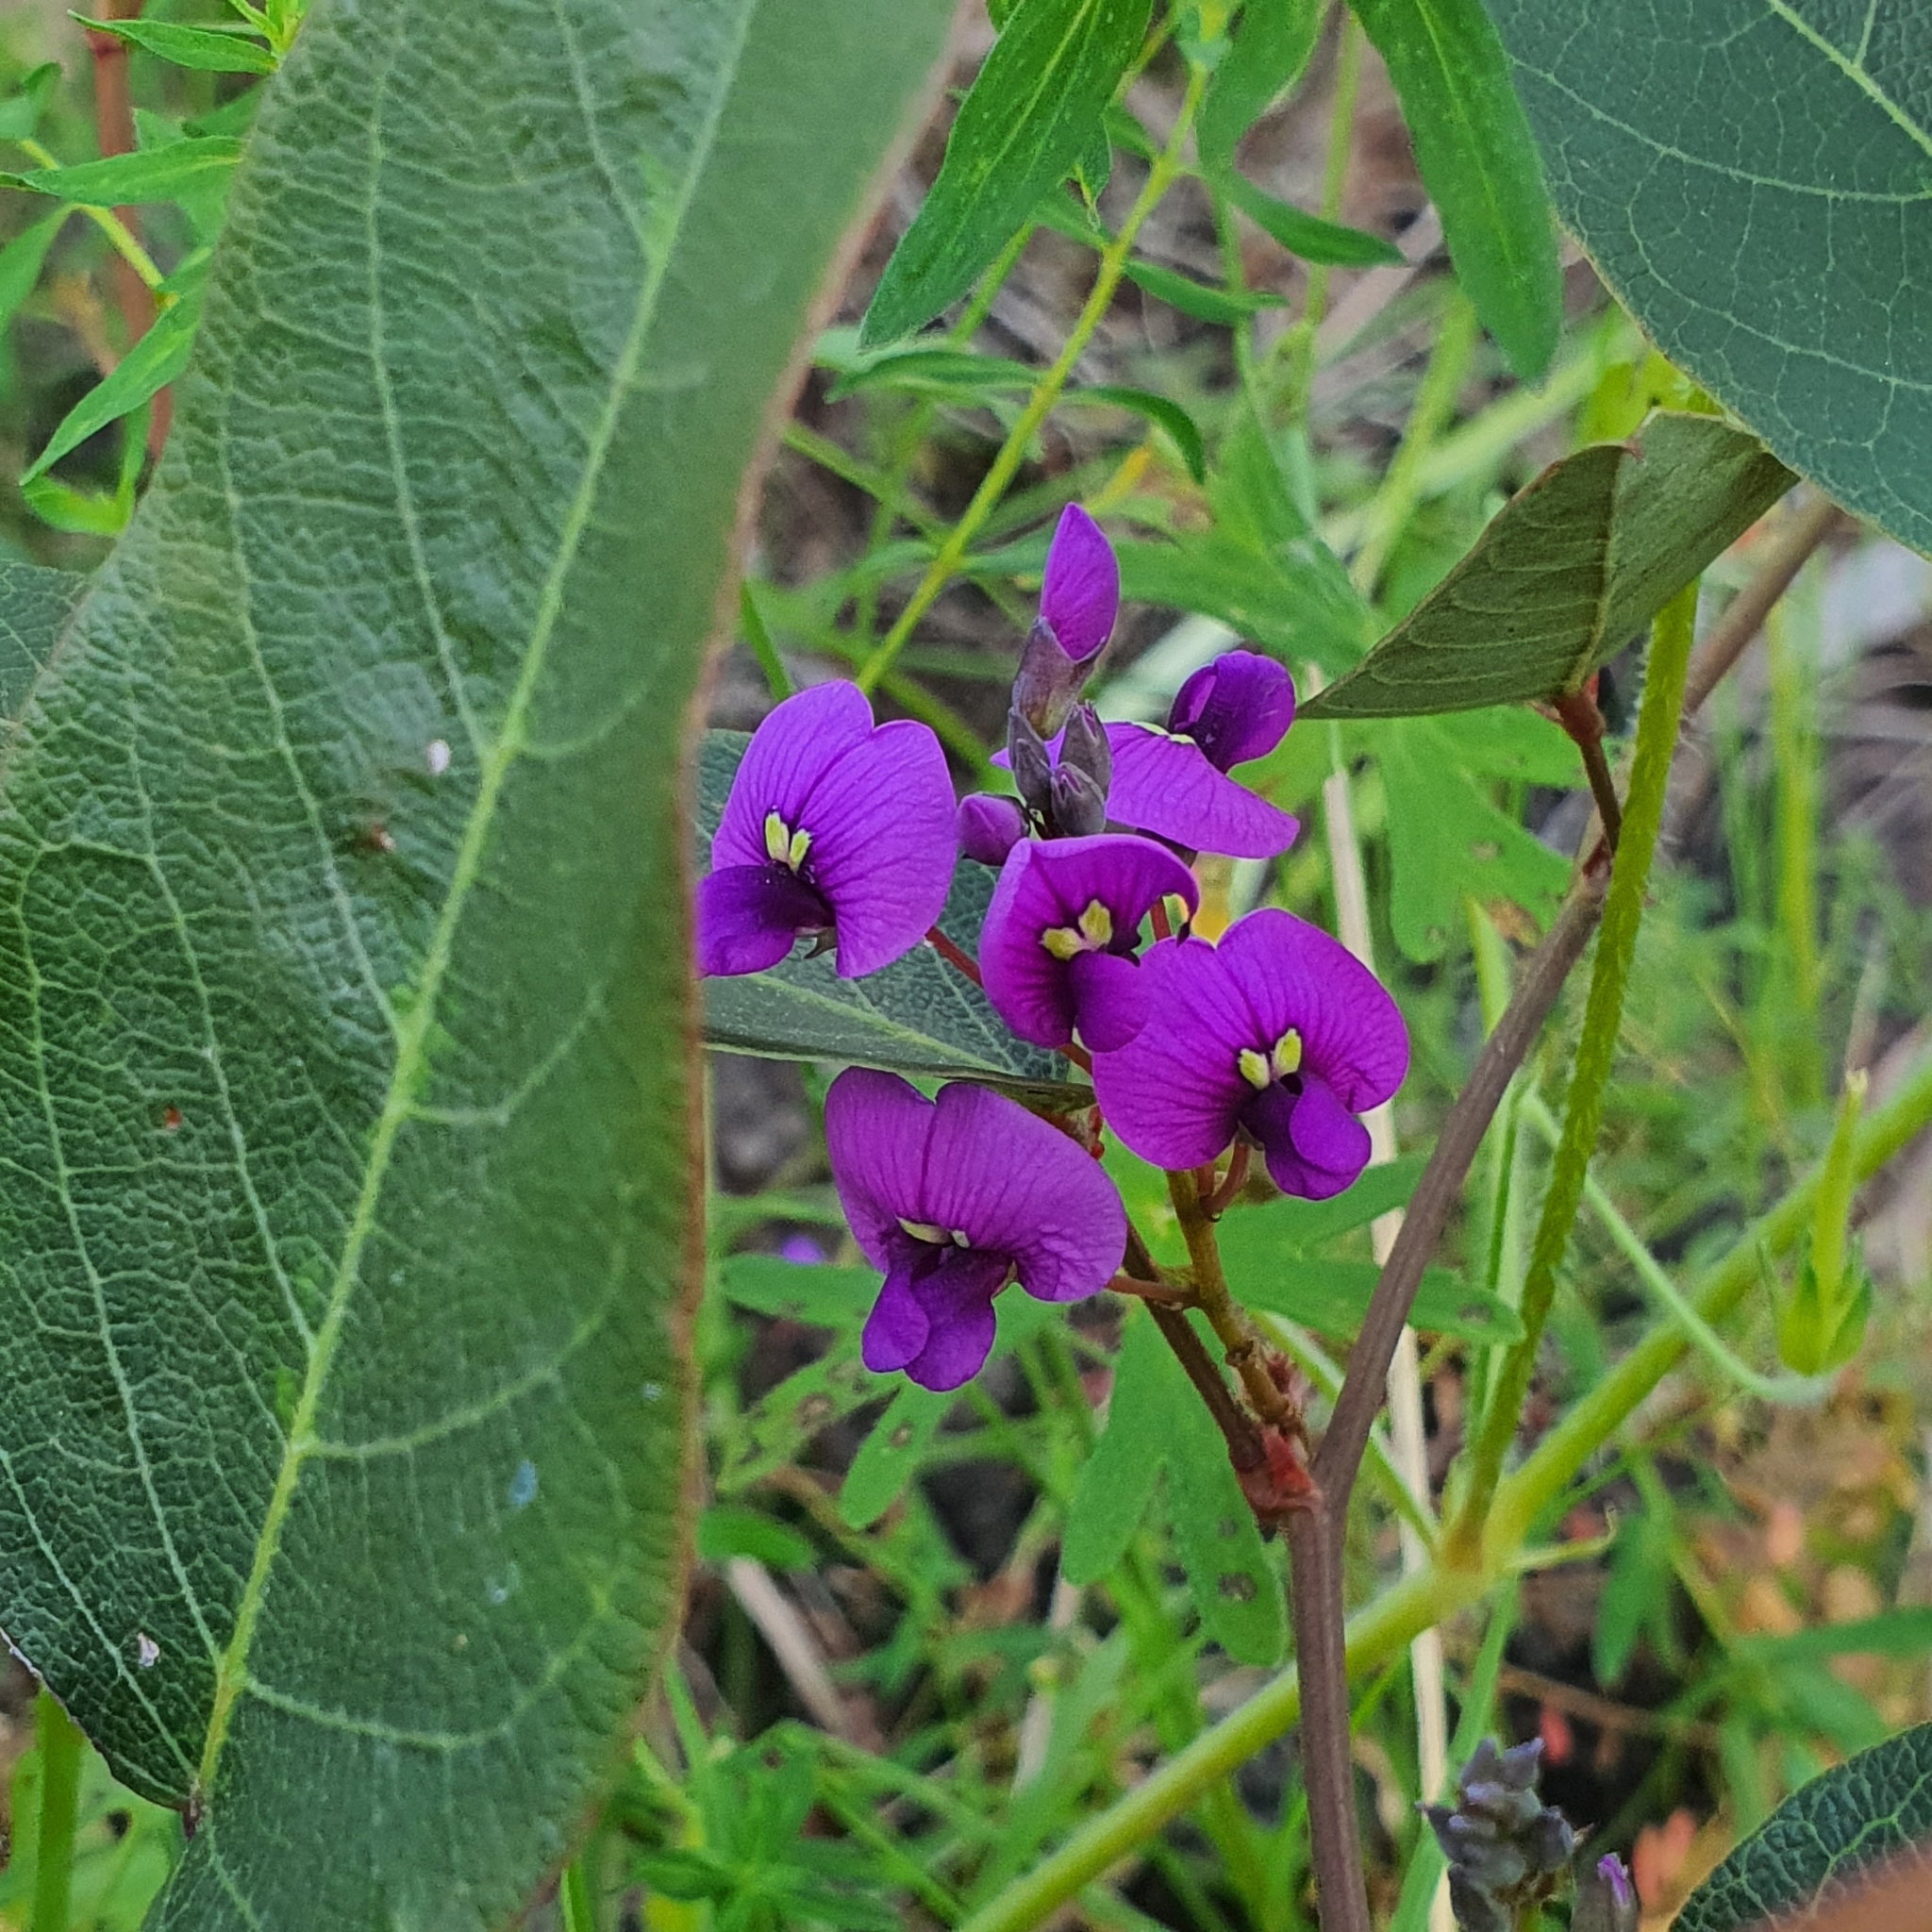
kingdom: Plantae
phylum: Tracheophyta
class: Magnoliopsida
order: Fabales
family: Fabaceae
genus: Hardenbergia
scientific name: Hardenbergia violacea
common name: Coral-pea
